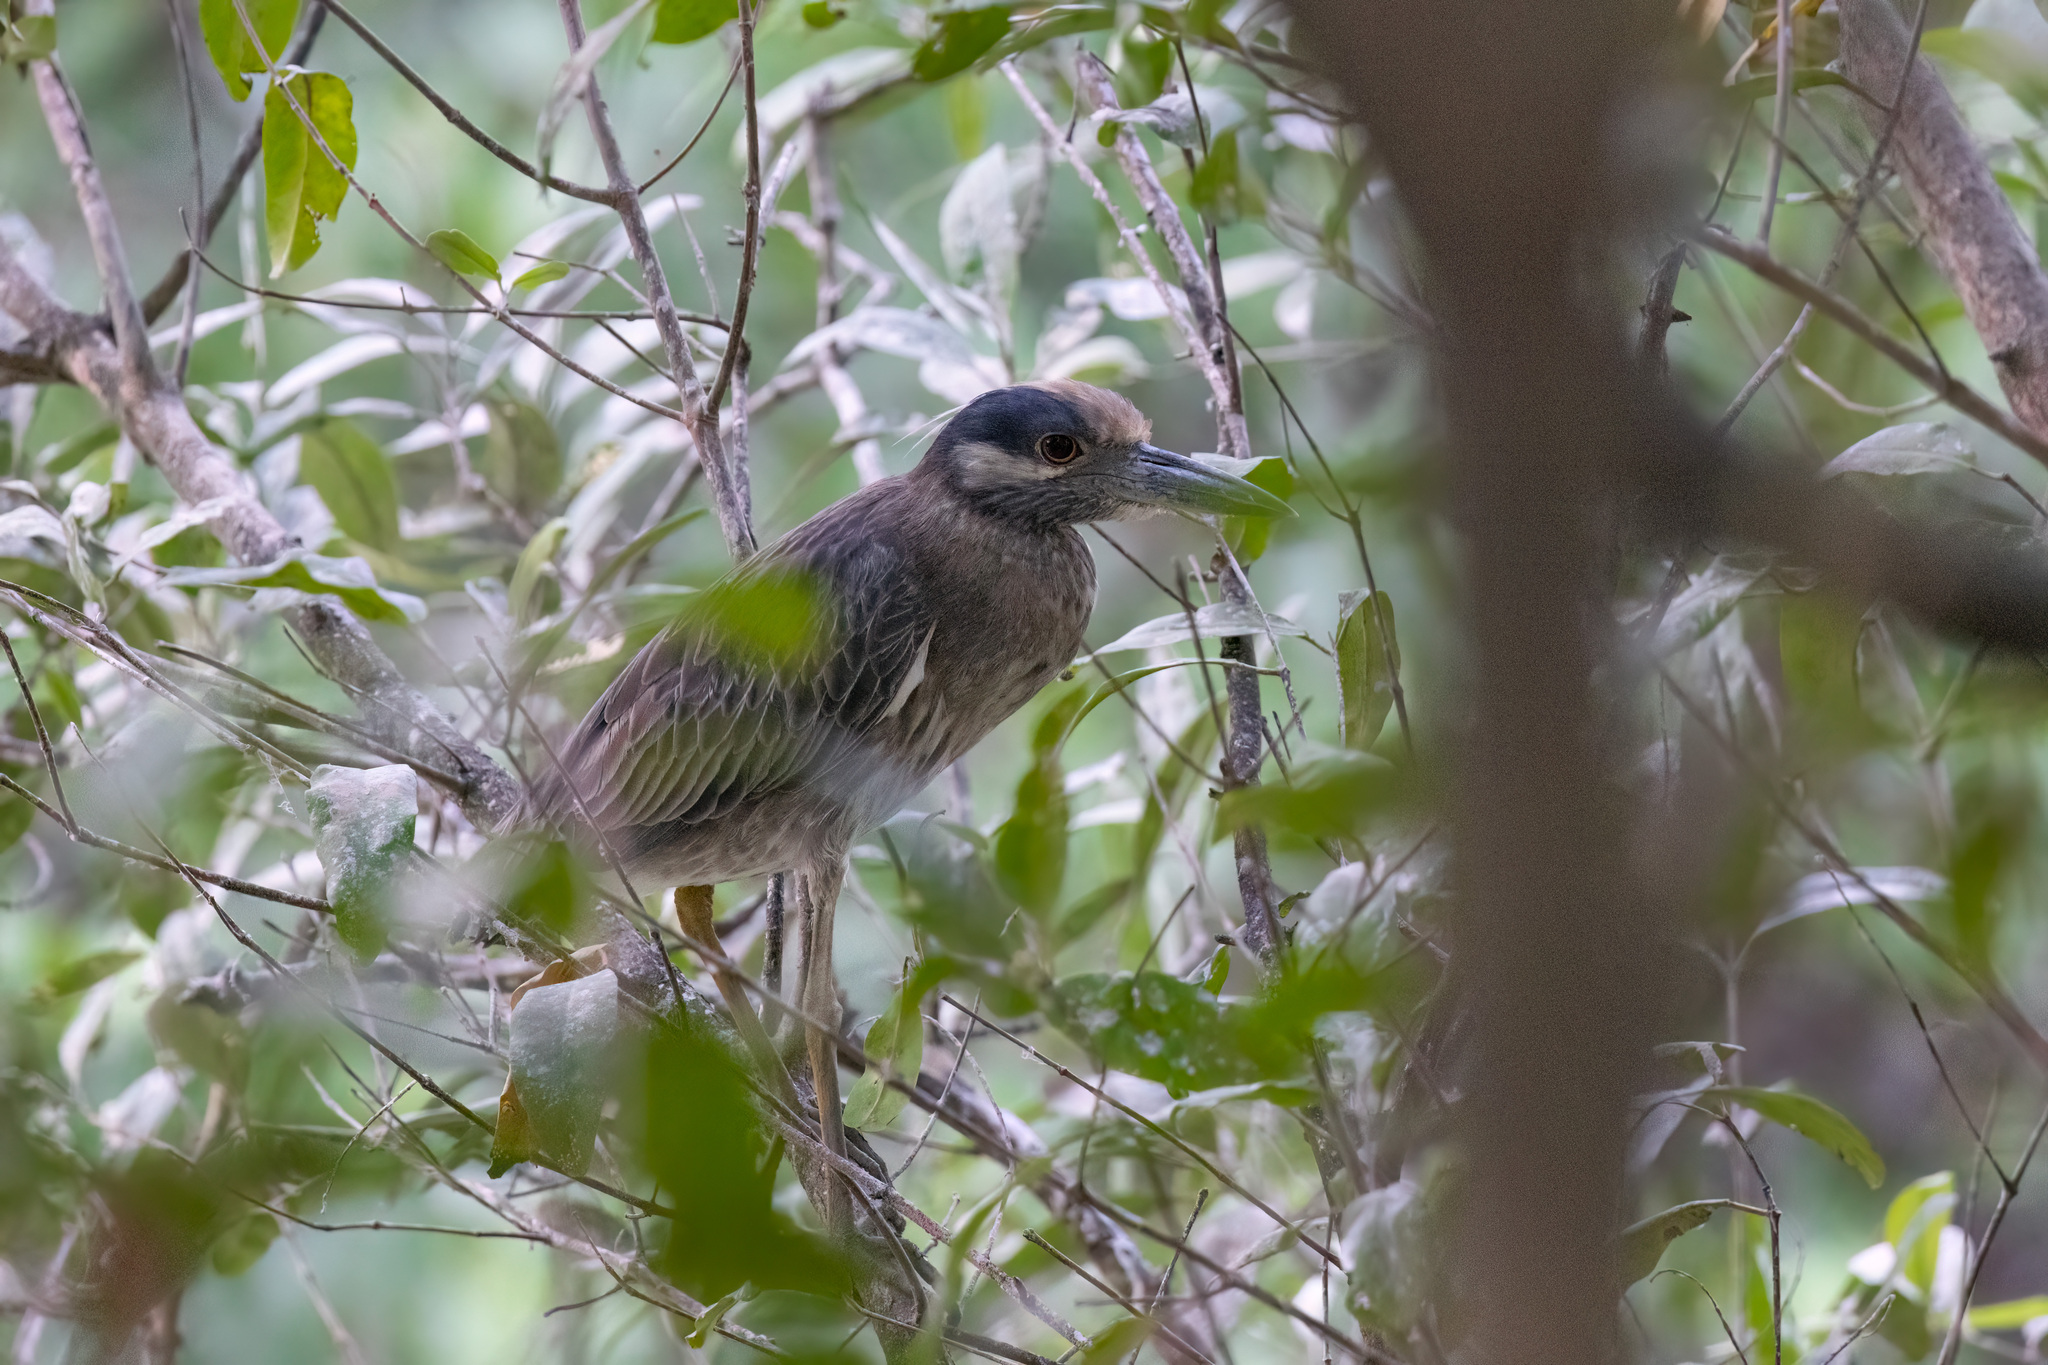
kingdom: Animalia
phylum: Chordata
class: Aves
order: Pelecaniformes
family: Ardeidae
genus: Nyctanassa
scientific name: Nyctanassa violacea
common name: Yellow-crowned night heron
